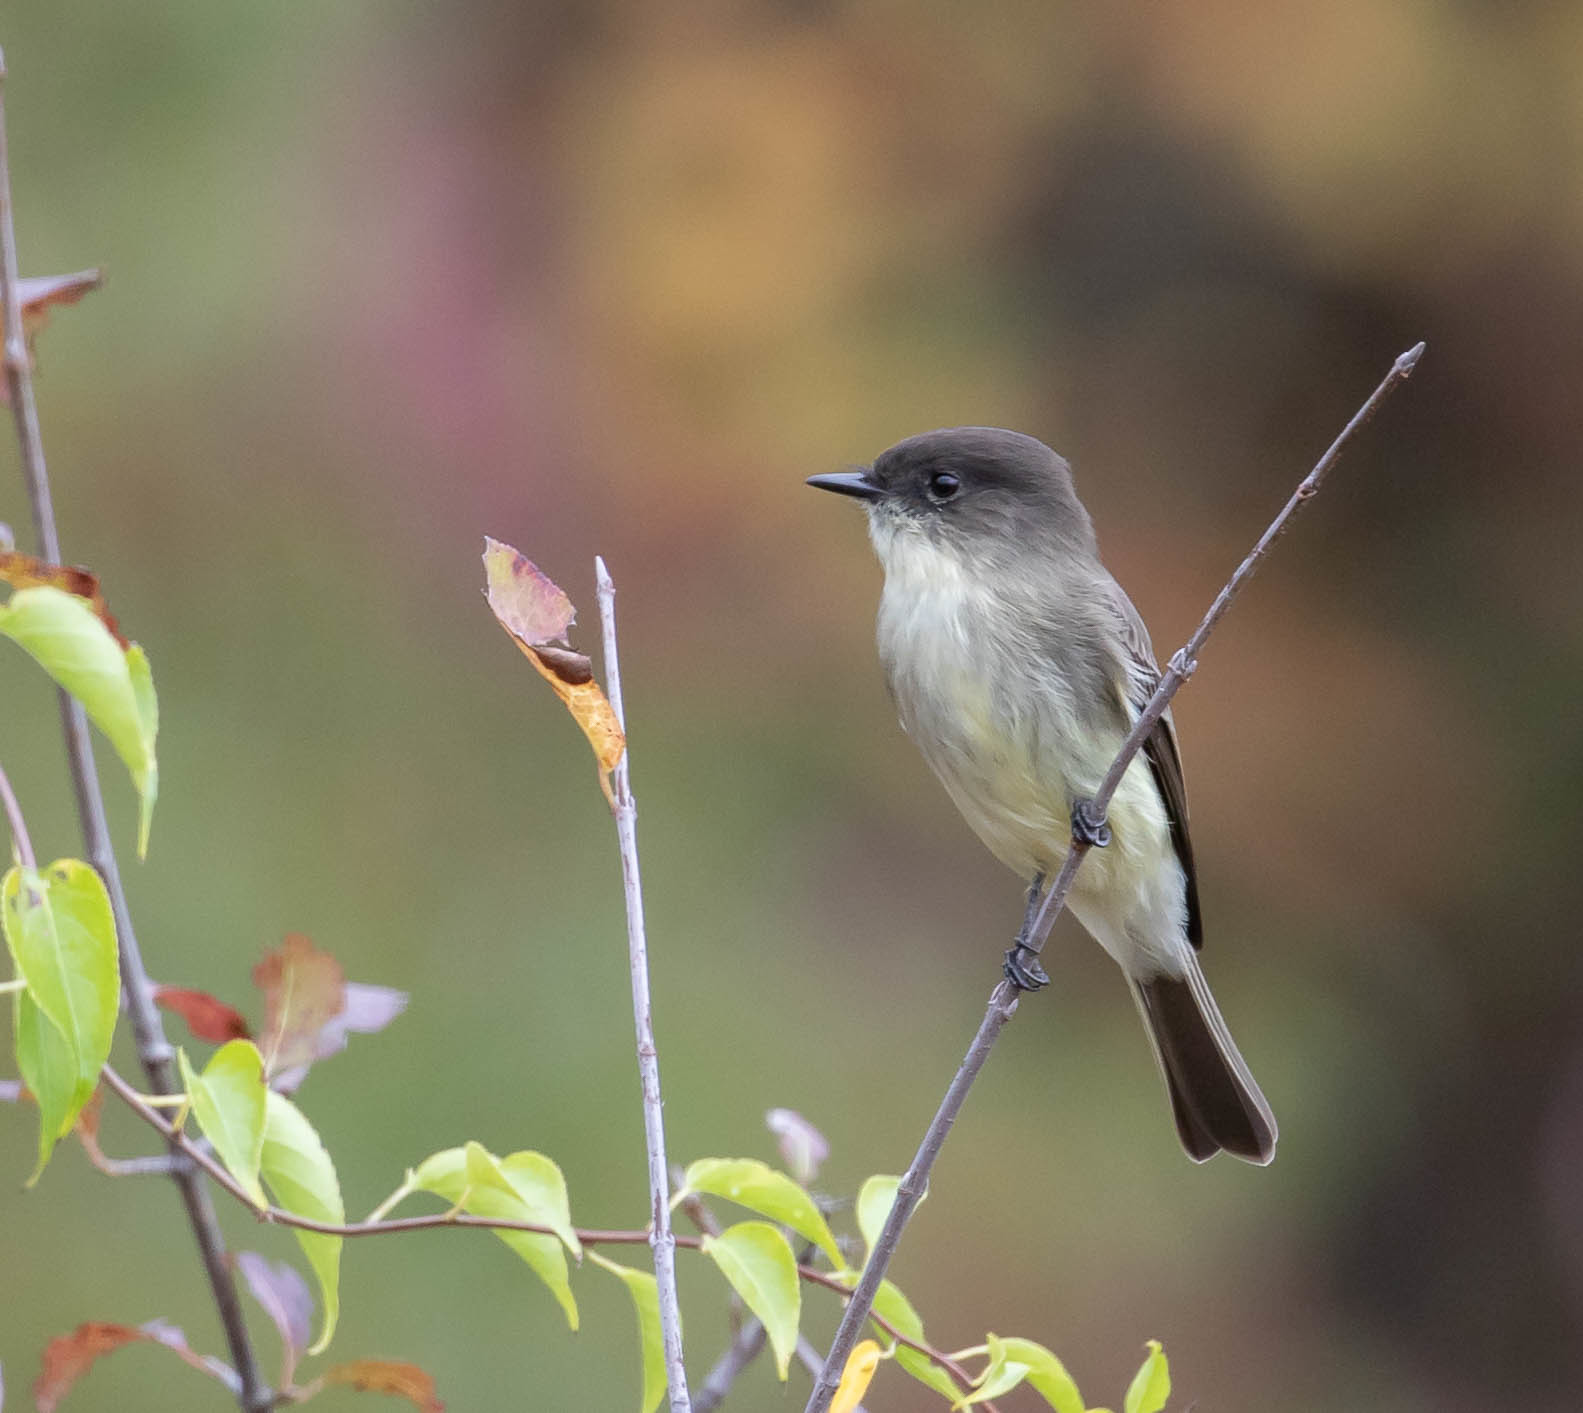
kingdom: Animalia
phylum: Chordata
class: Aves
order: Passeriformes
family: Tyrannidae
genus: Sayornis
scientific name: Sayornis phoebe
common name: Eastern phoebe
